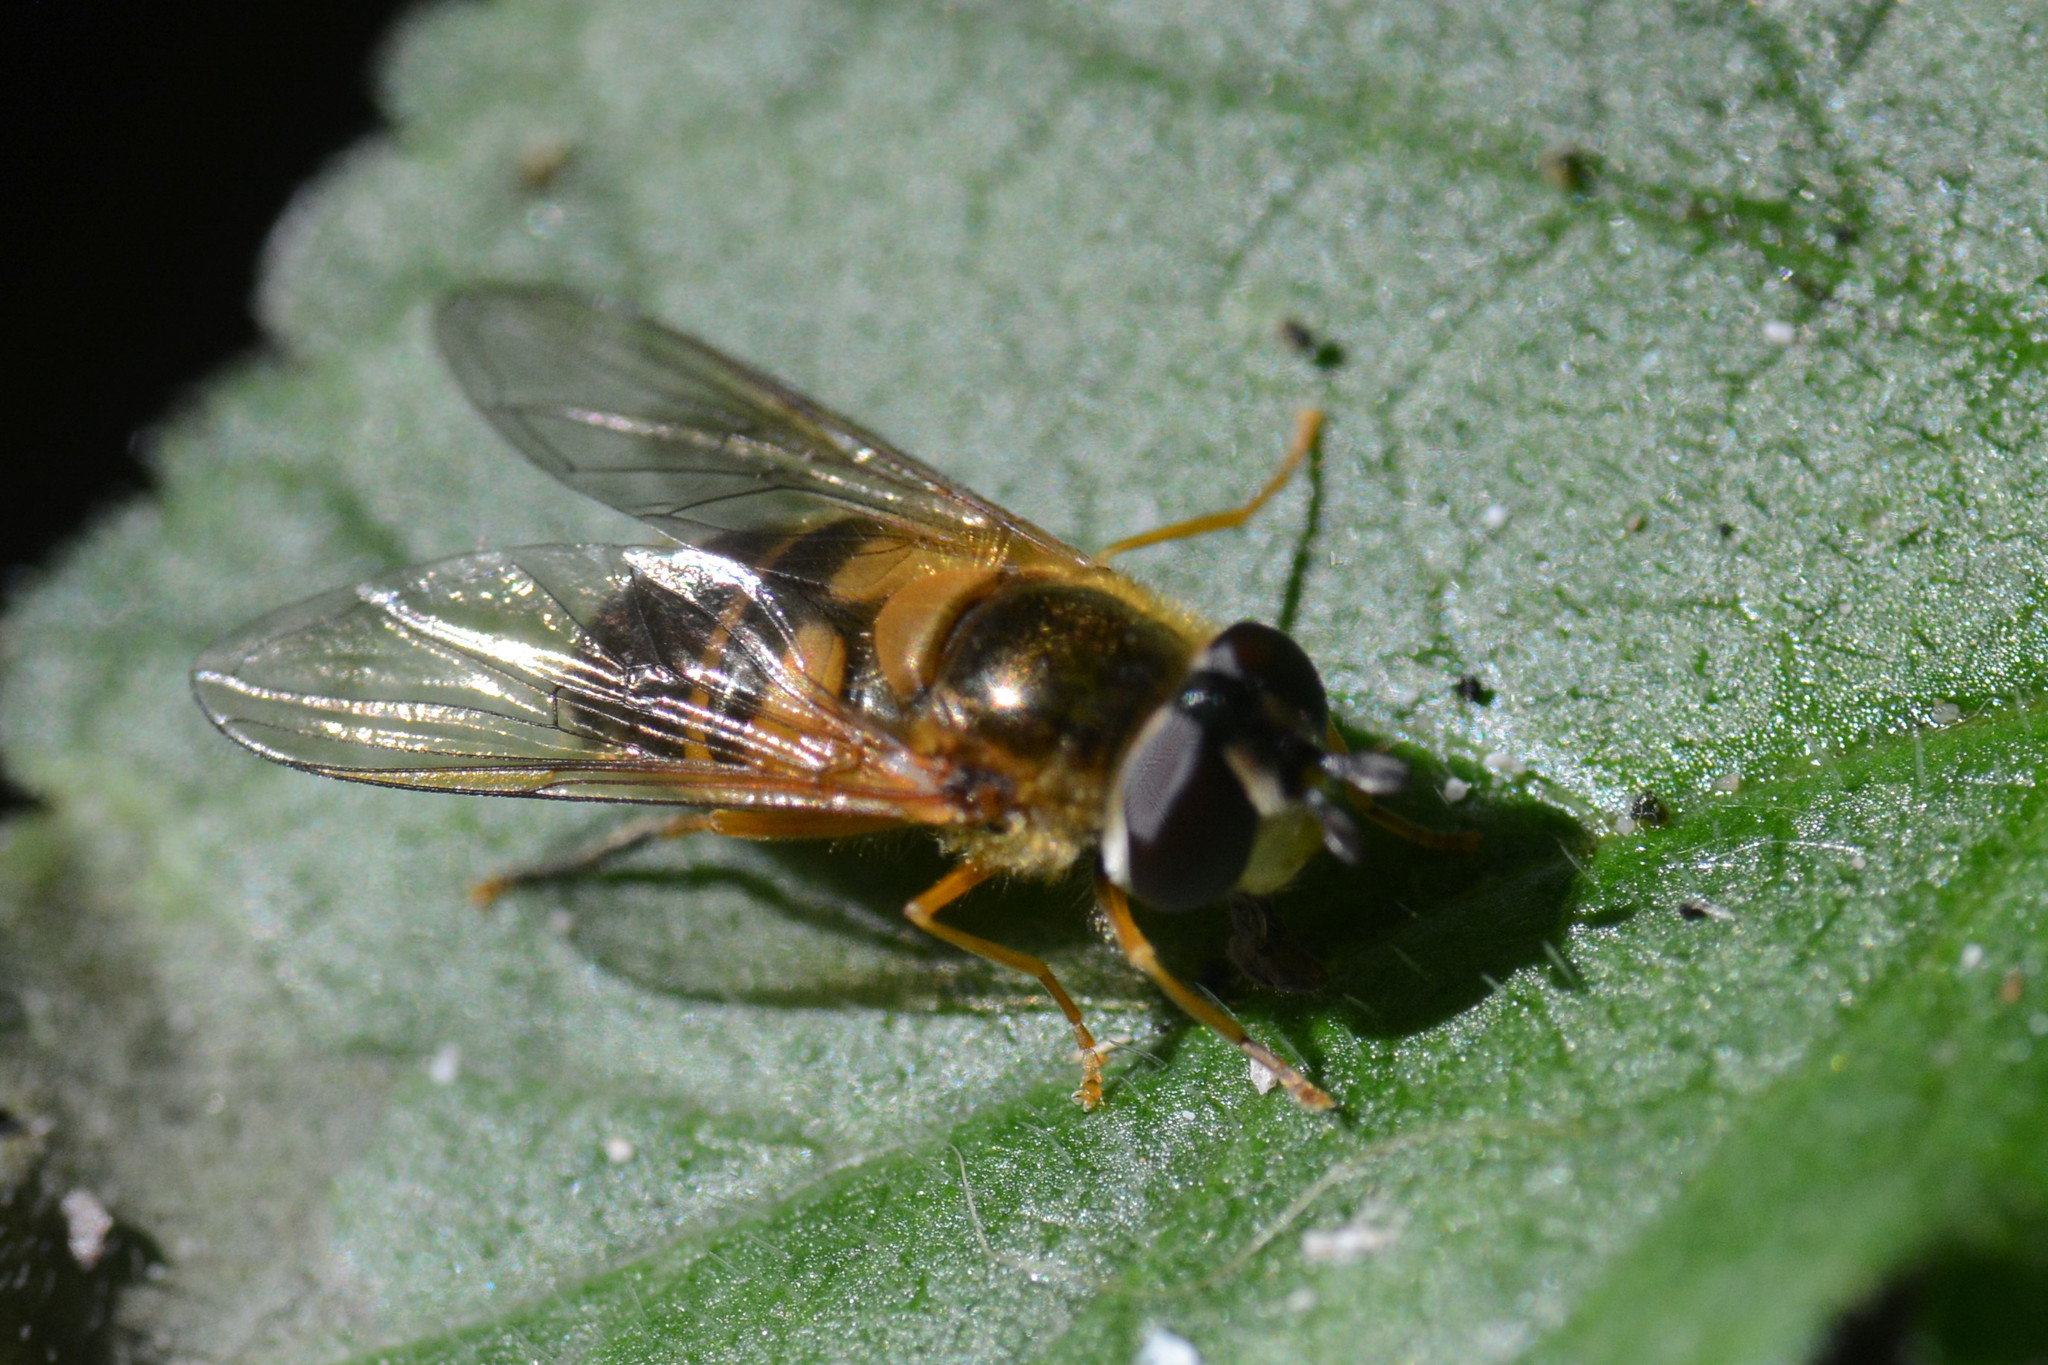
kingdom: Animalia
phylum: Arthropoda
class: Insecta
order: Diptera
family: Syrphidae
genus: Epistrophe
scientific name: Epistrophe eligans
